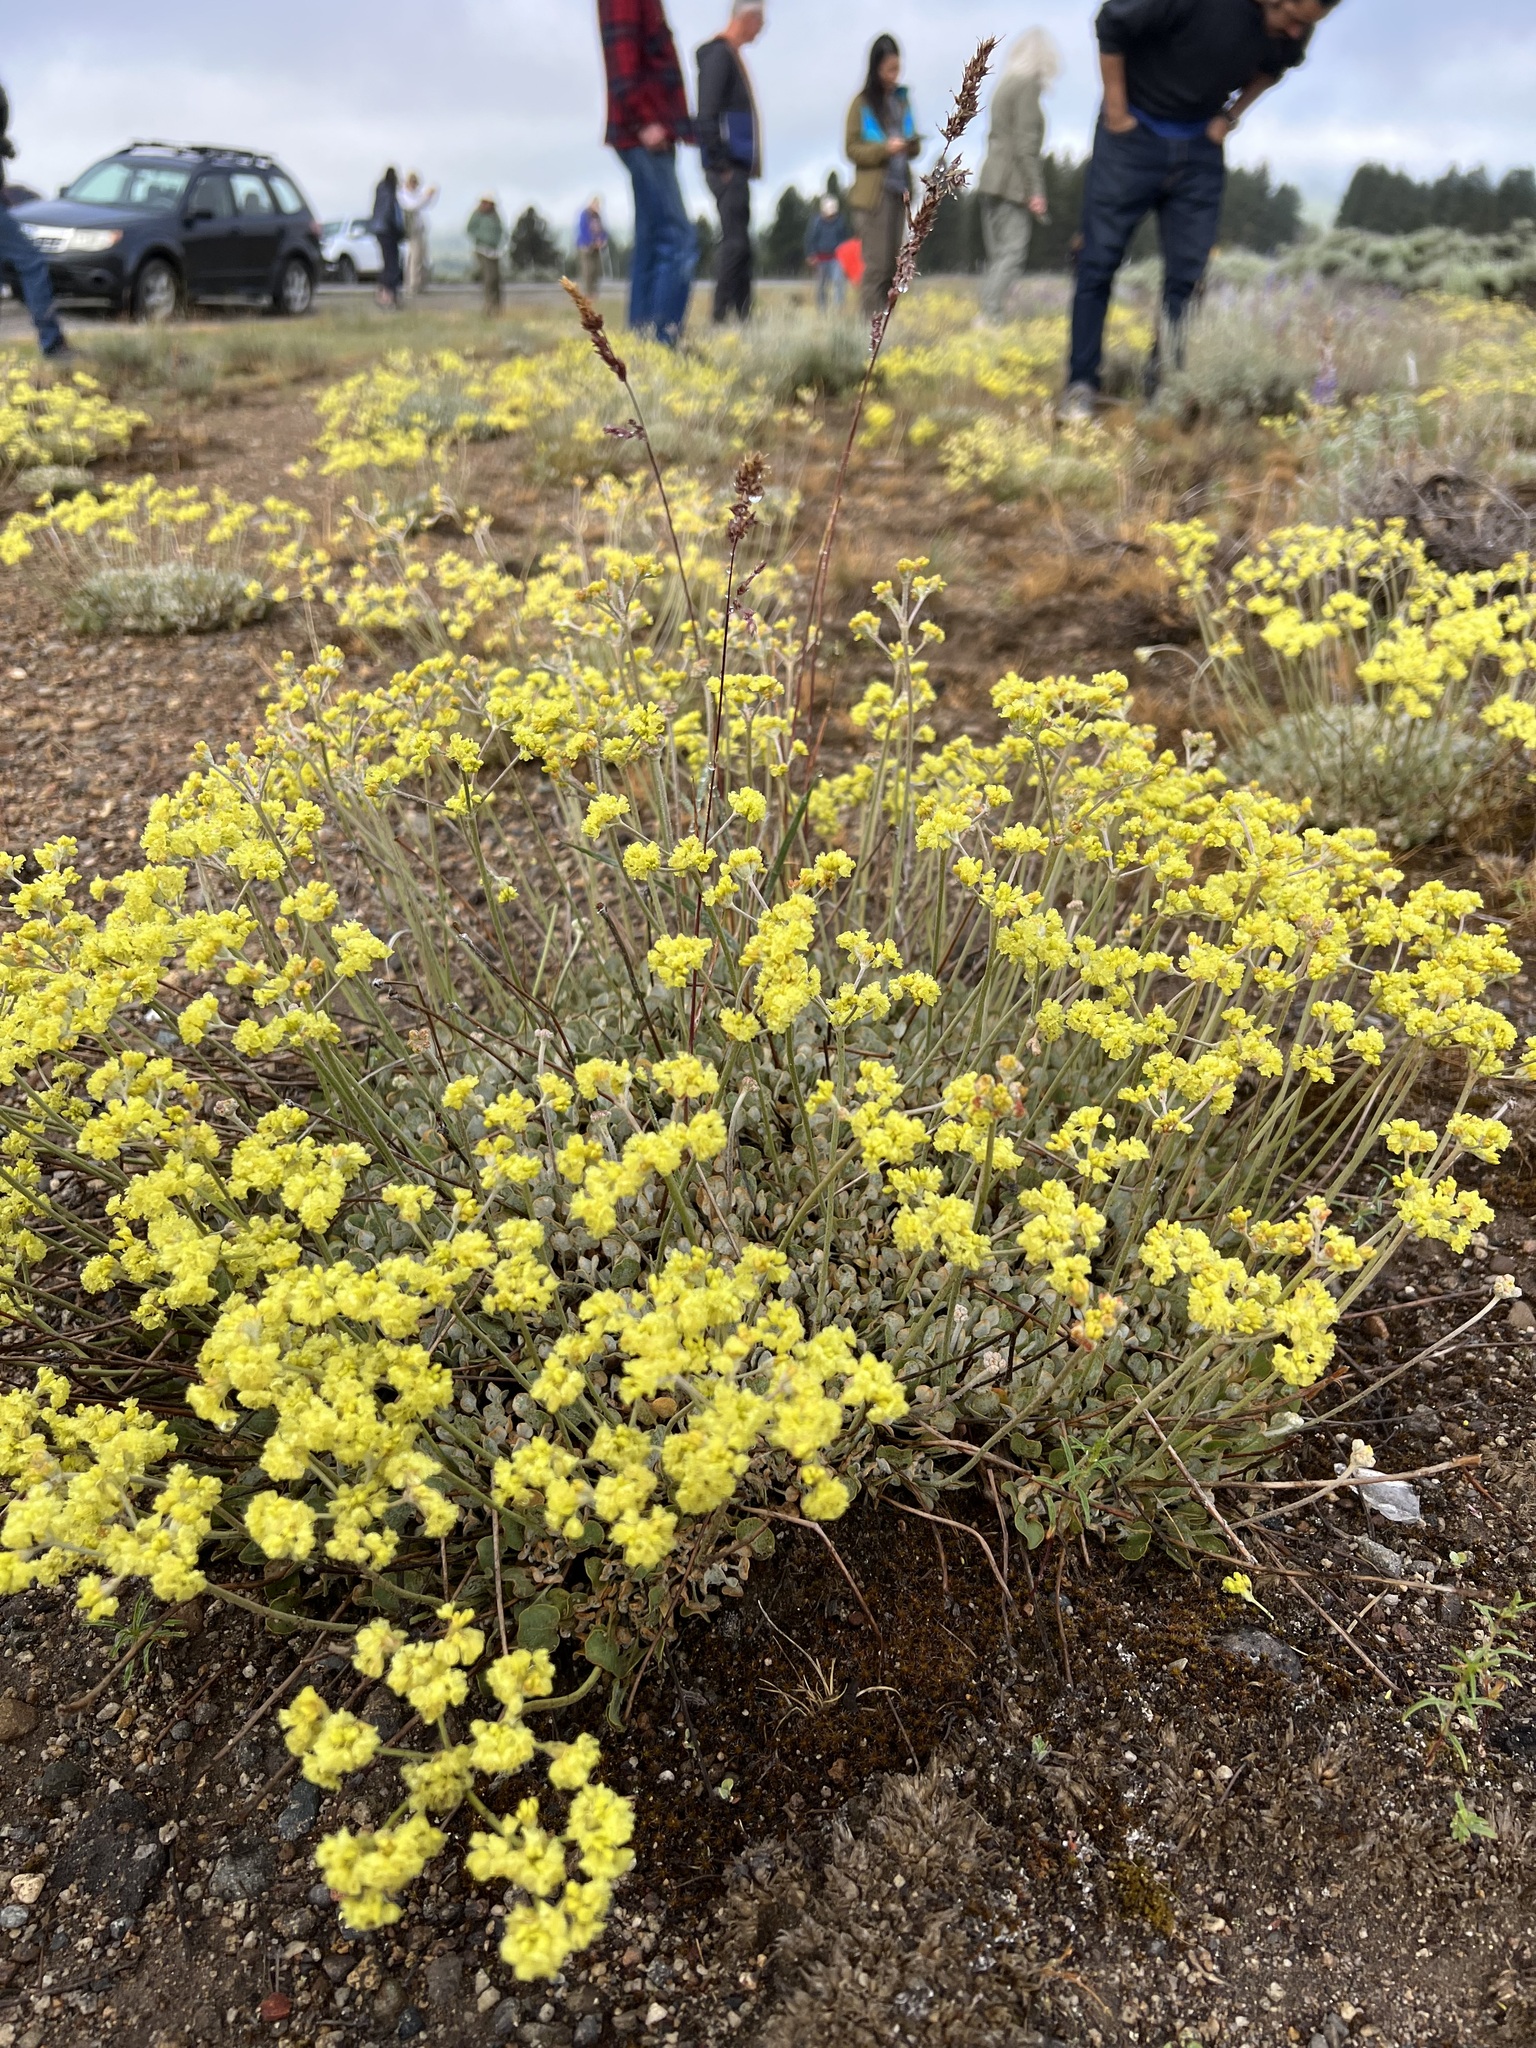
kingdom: Plantae
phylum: Tracheophyta
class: Magnoliopsida
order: Caryophyllales
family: Polygonaceae
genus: Eriogonum
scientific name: Eriogonum strictum
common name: Blue mountain buckwheat
